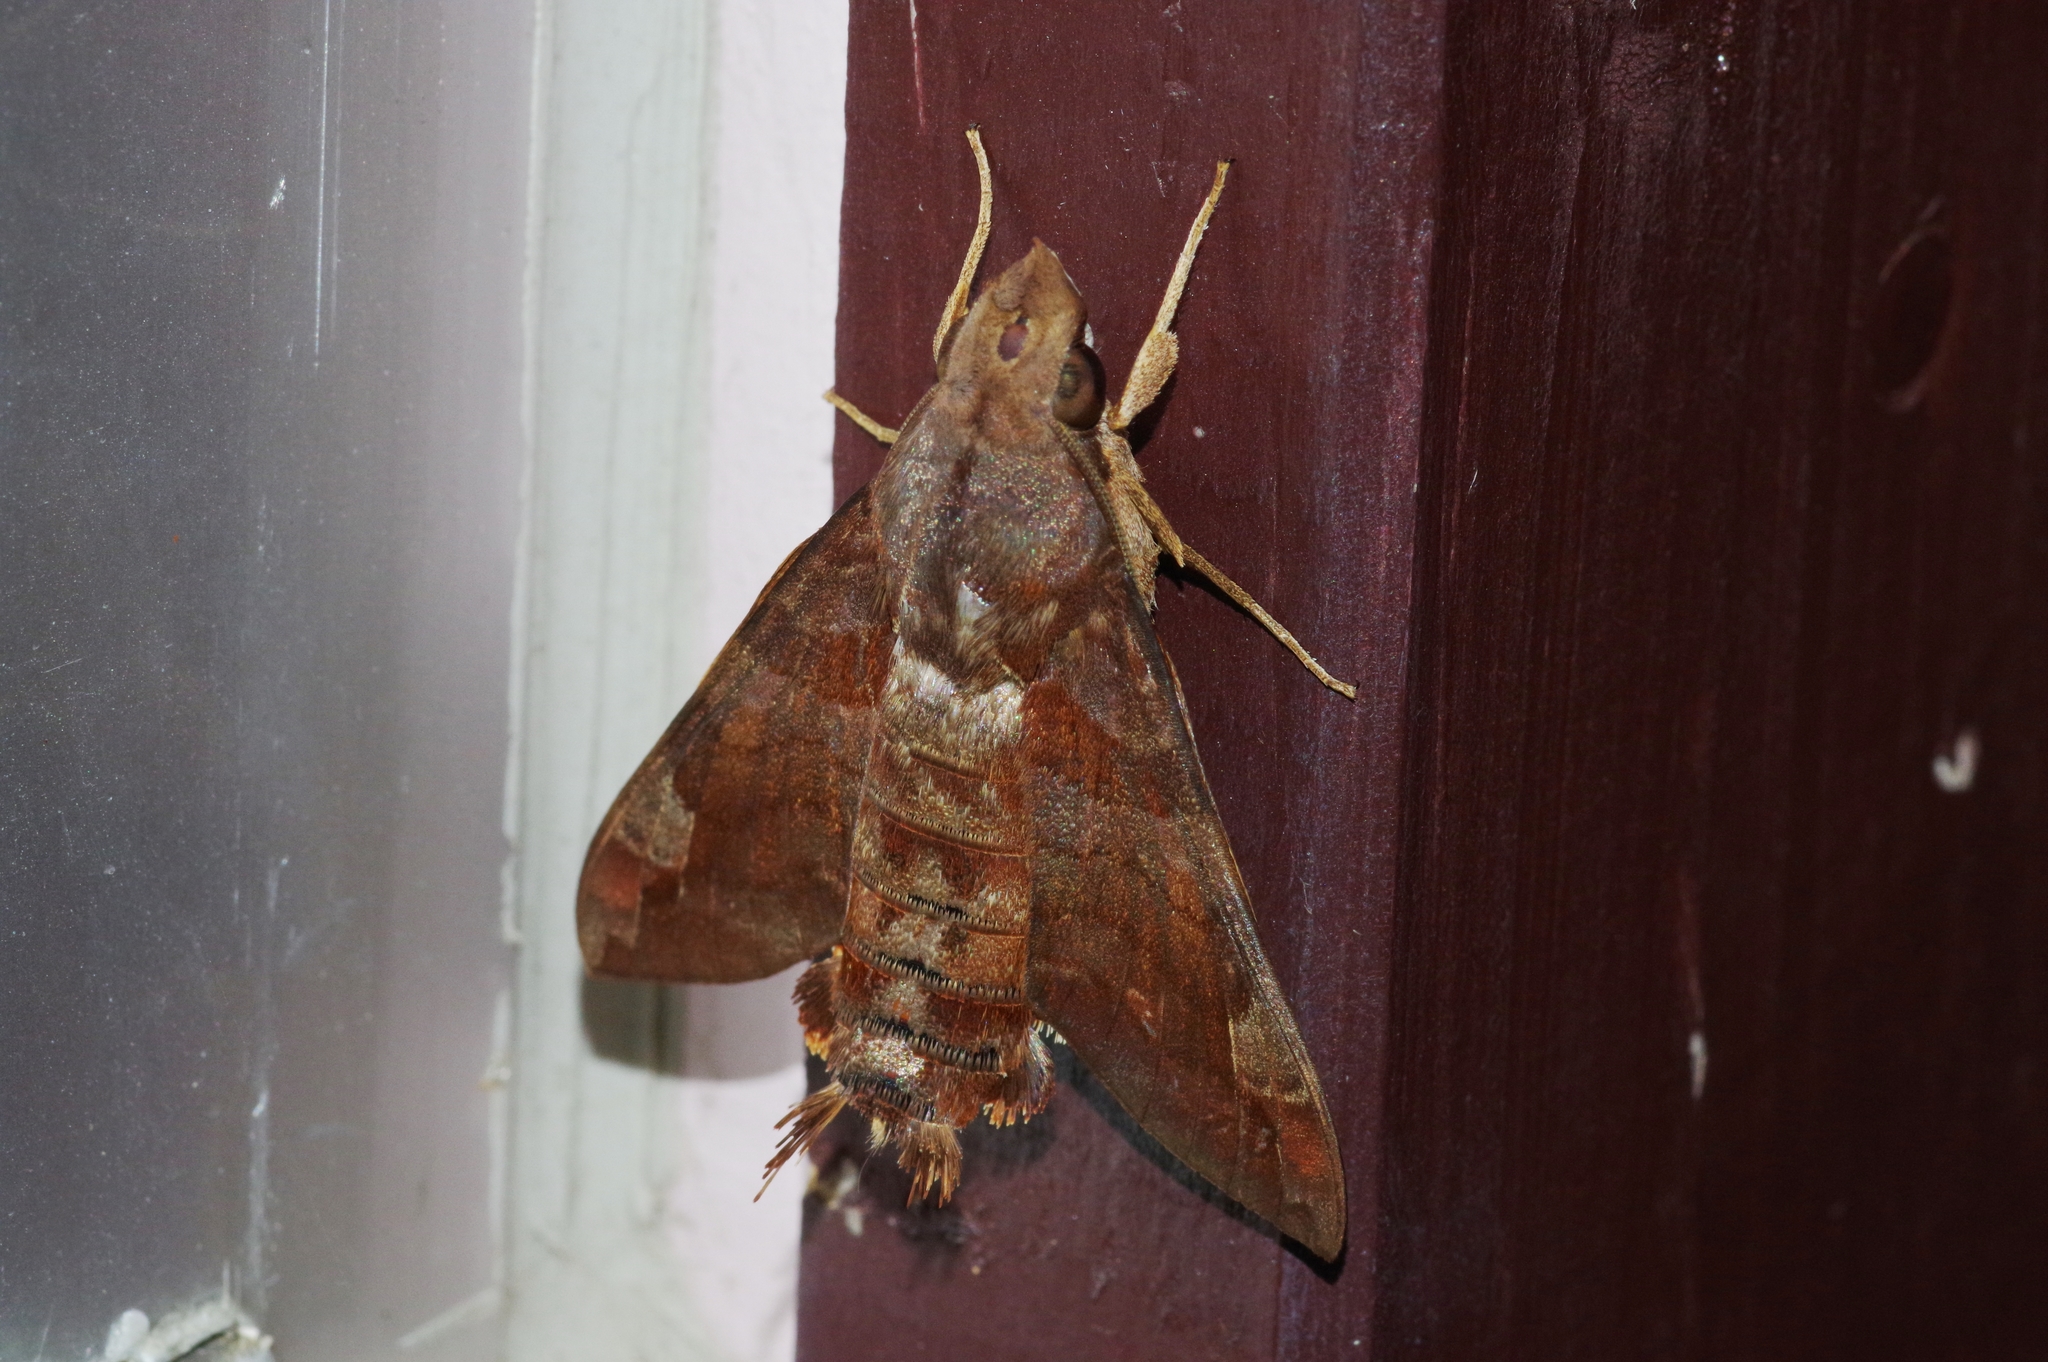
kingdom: Animalia
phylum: Arthropoda
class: Insecta
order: Lepidoptera
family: Sphingidae
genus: Macroglossum
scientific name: Macroglossum saga
